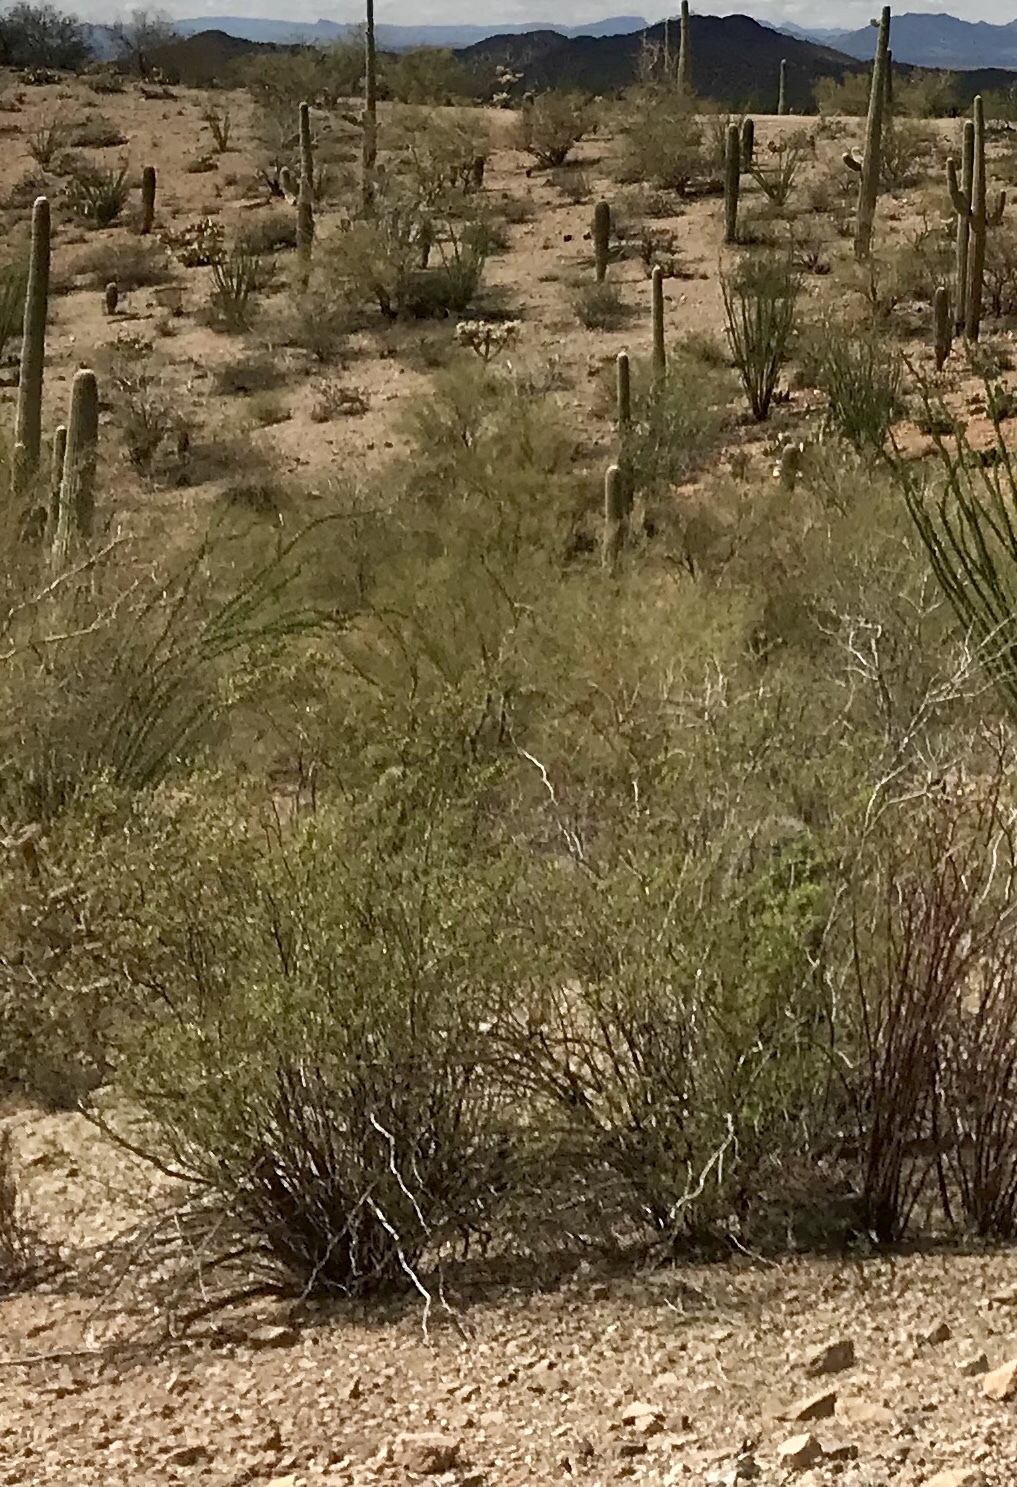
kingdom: Plantae
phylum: Tracheophyta
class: Magnoliopsida
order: Zygophyllales
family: Zygophyllaceae
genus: Larrea
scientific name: Larrea tridentata
